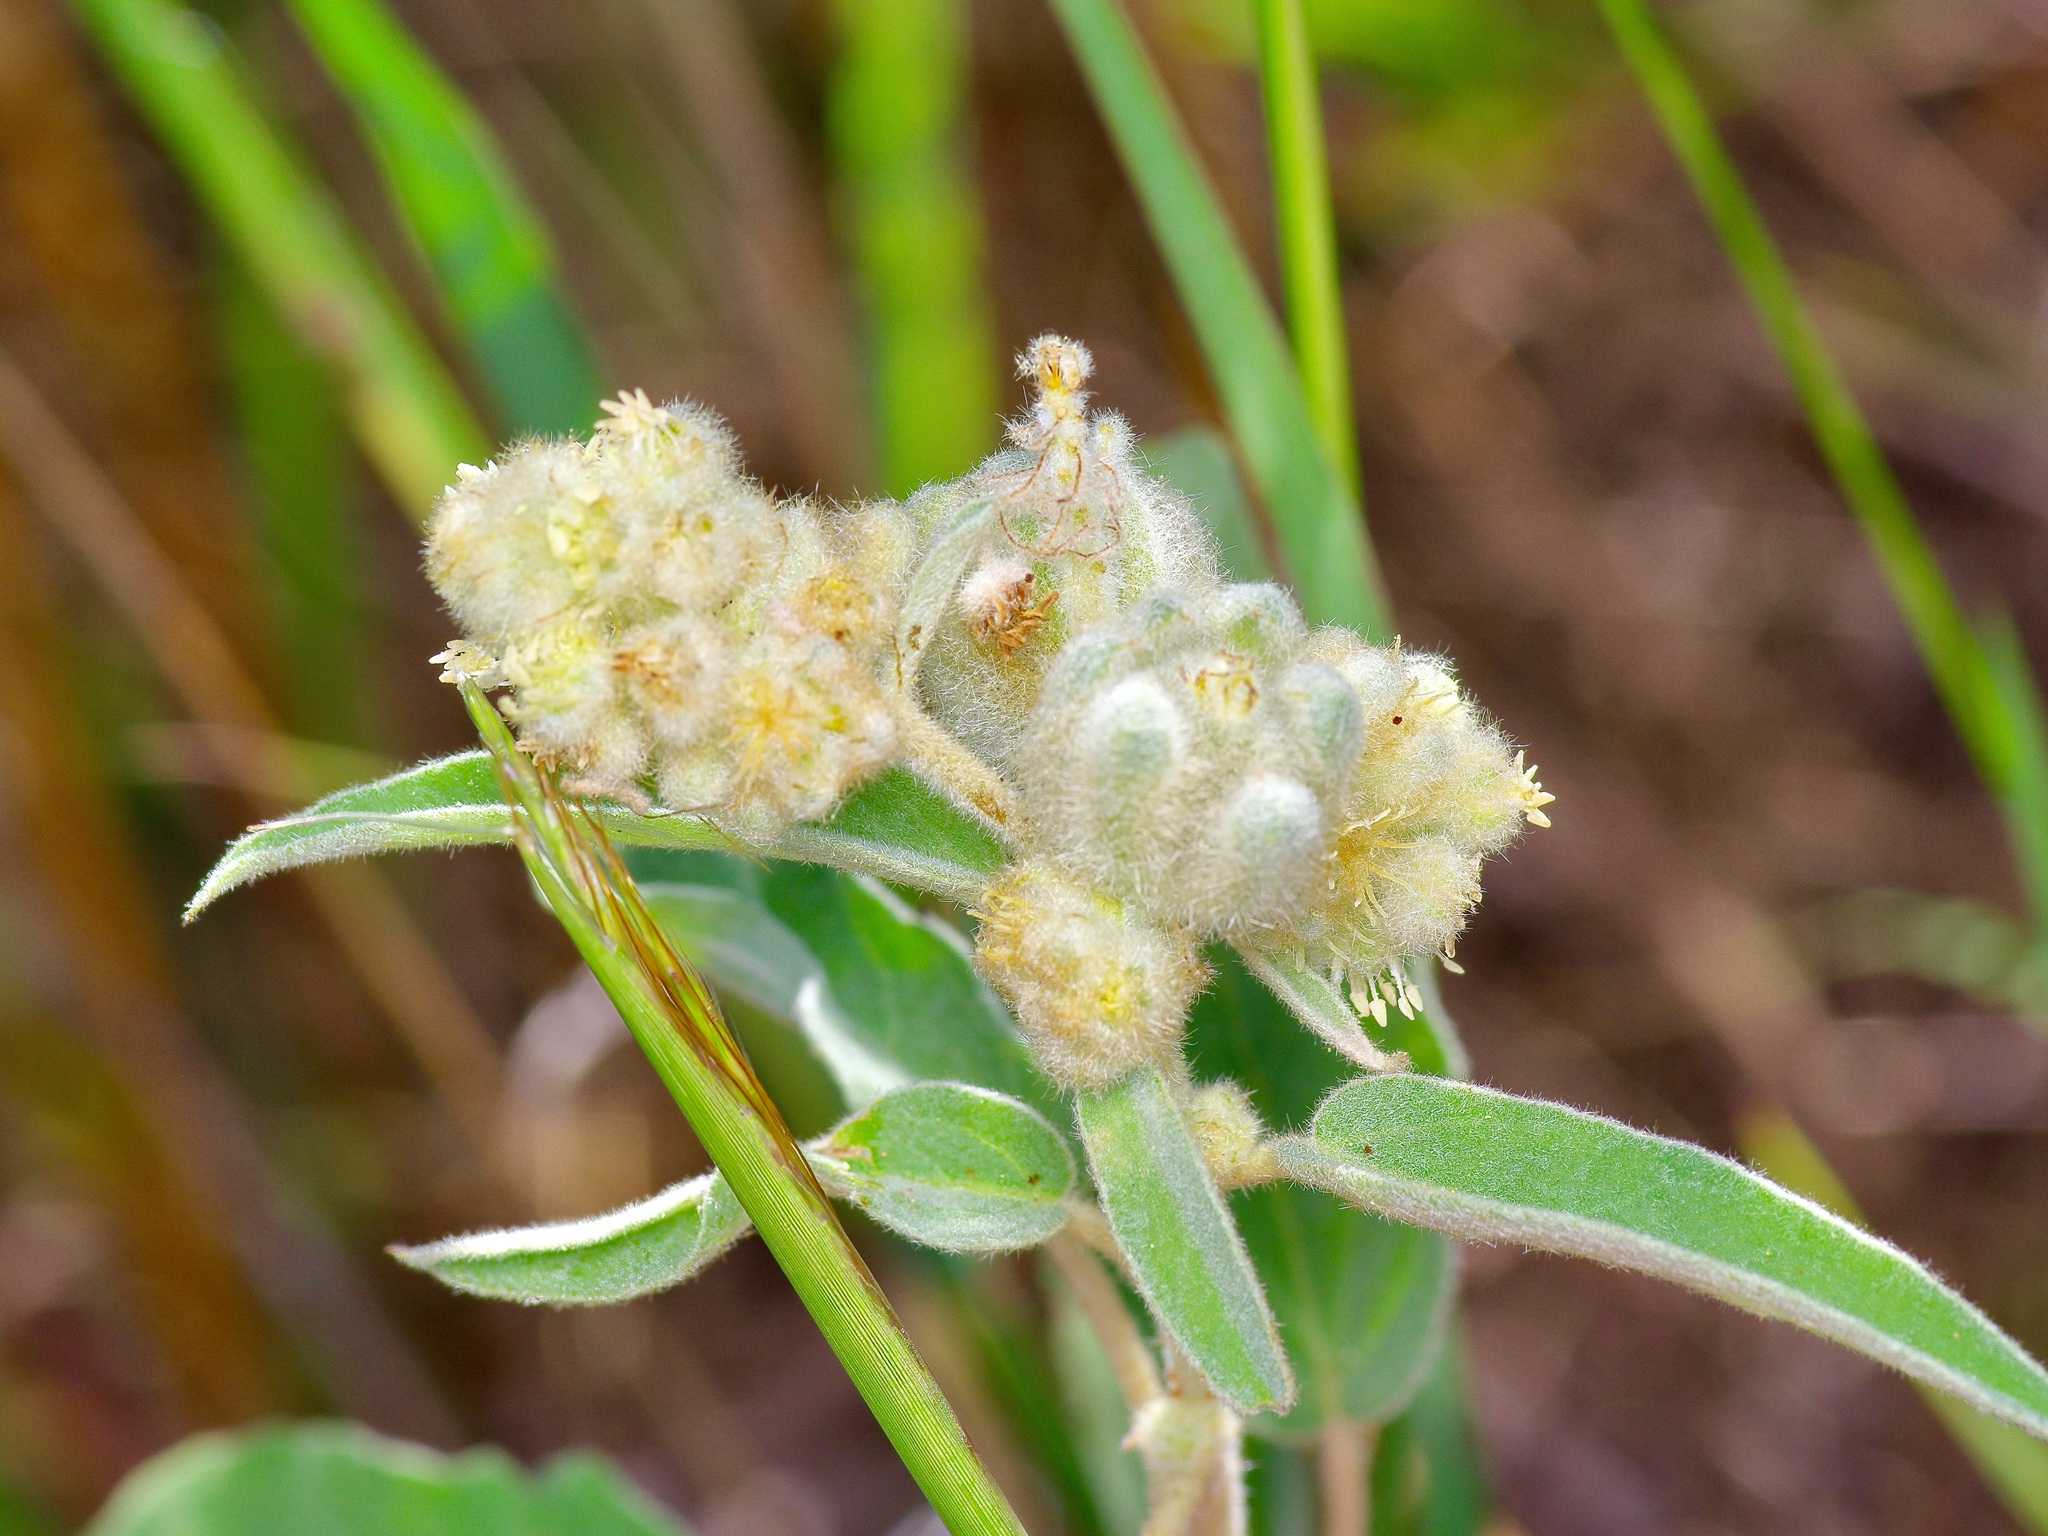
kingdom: Plantae
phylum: Tracheophyta
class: Magnoliopsida
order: Malpighiales
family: Euphorbiaceae
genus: Croton
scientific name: Croton lindheimeri
